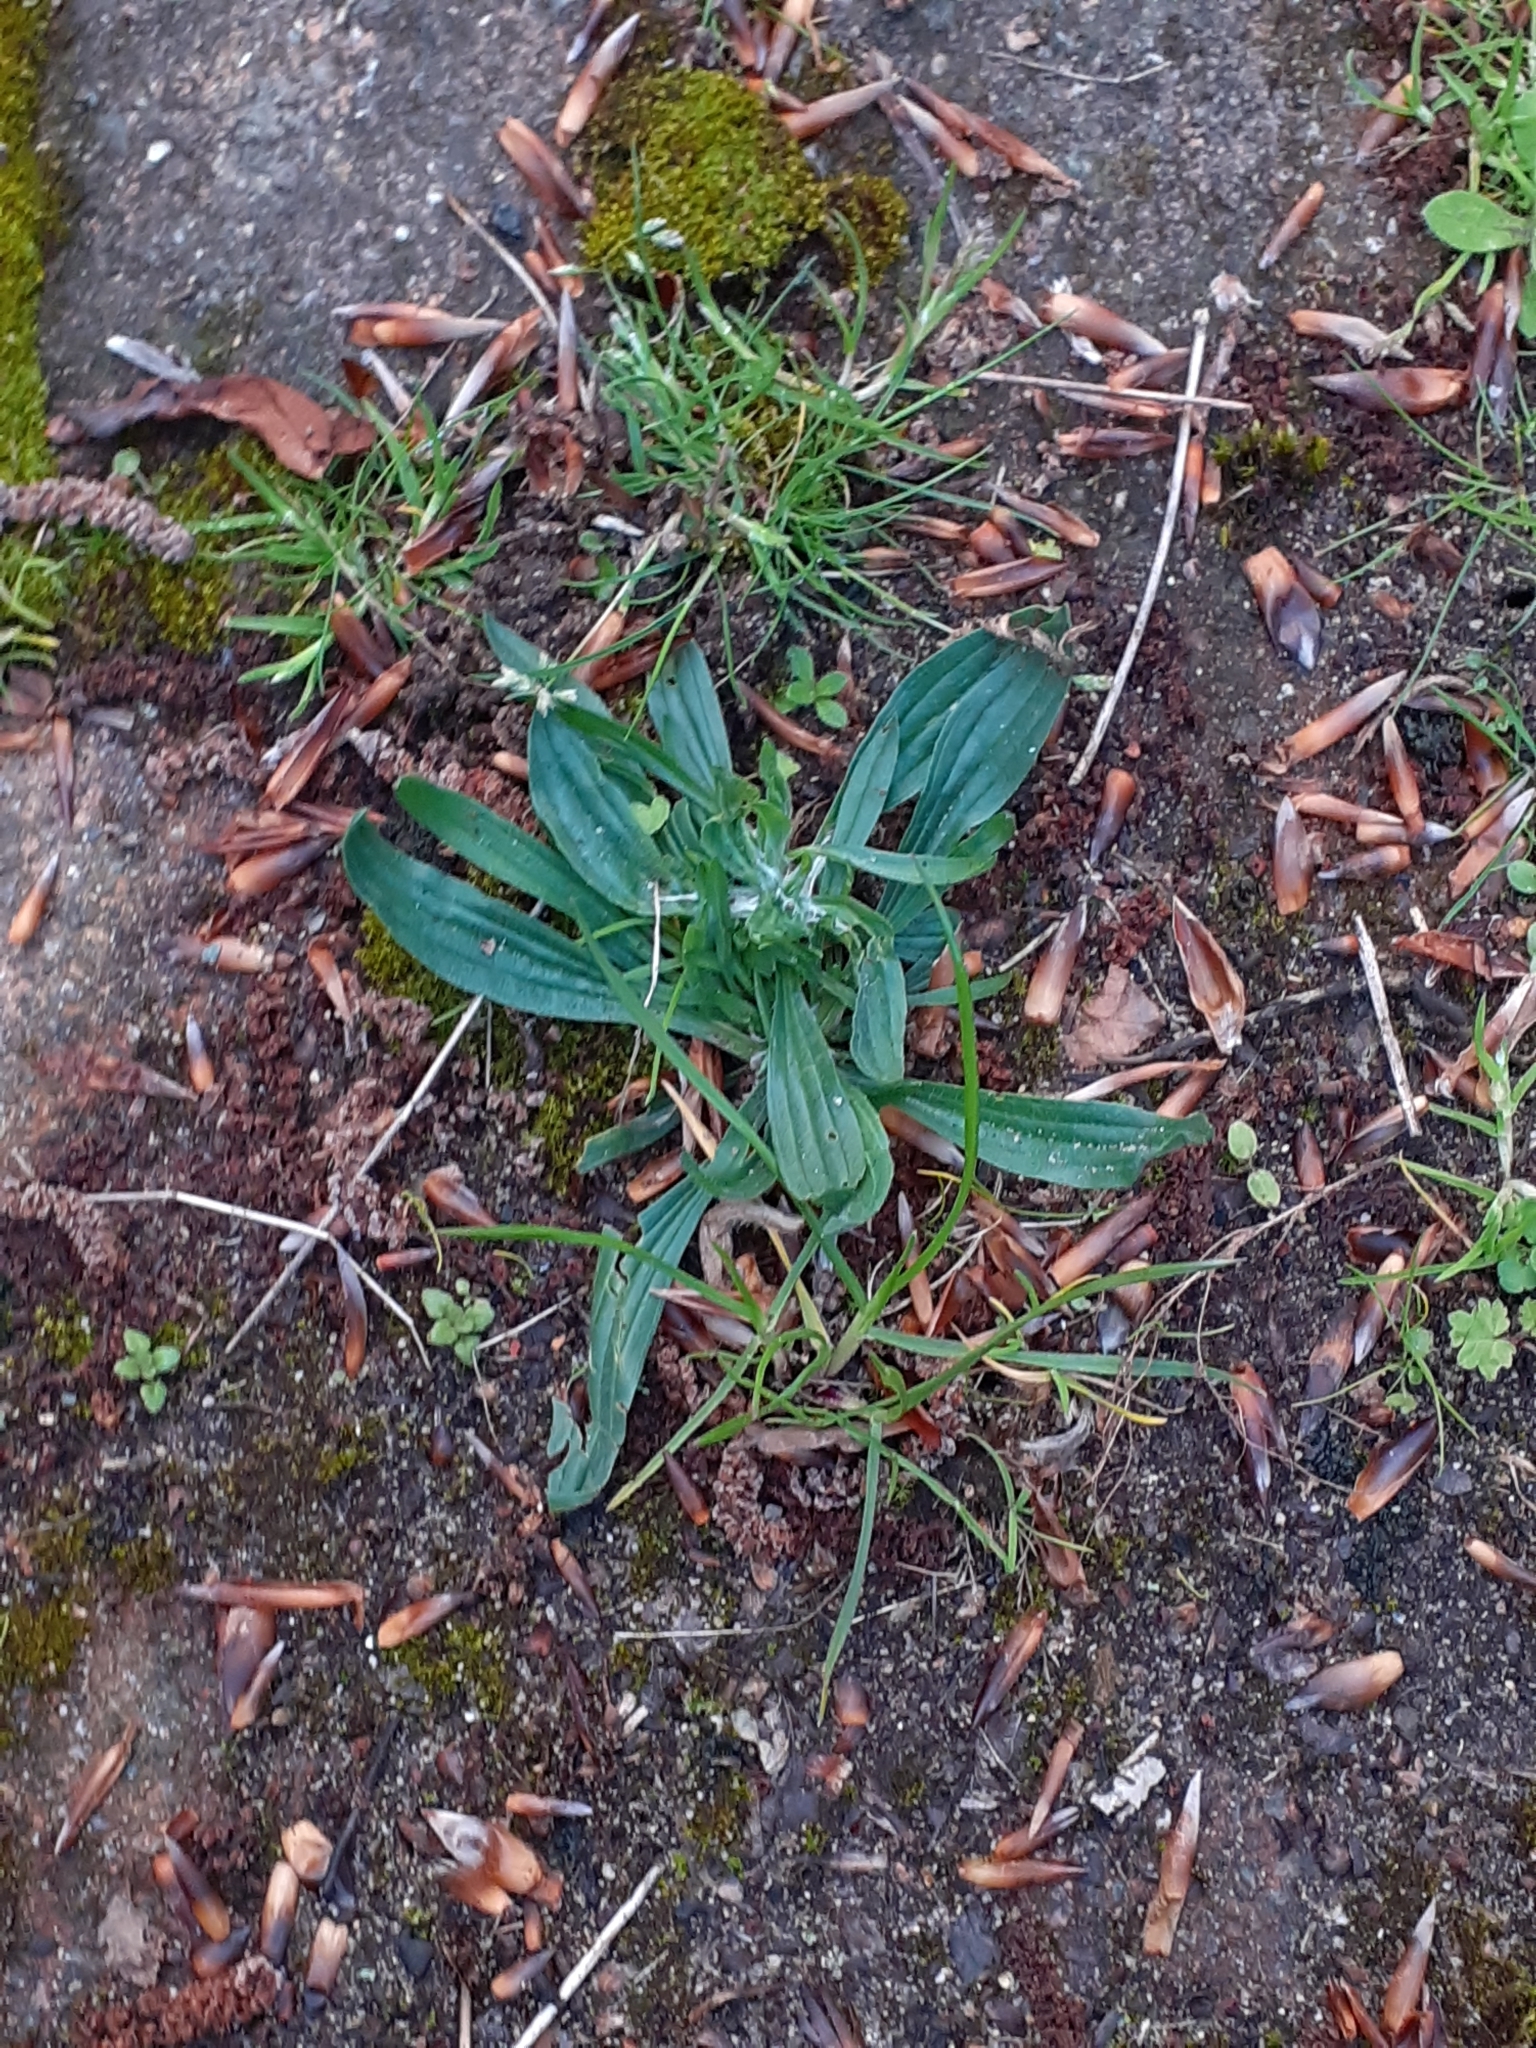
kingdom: Plantae
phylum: Tracheophyta
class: Magnoliopsida
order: Lamiales
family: Plantaginaceae
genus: Plantago
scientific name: Plantago lanceolata
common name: Ribwort plantain
